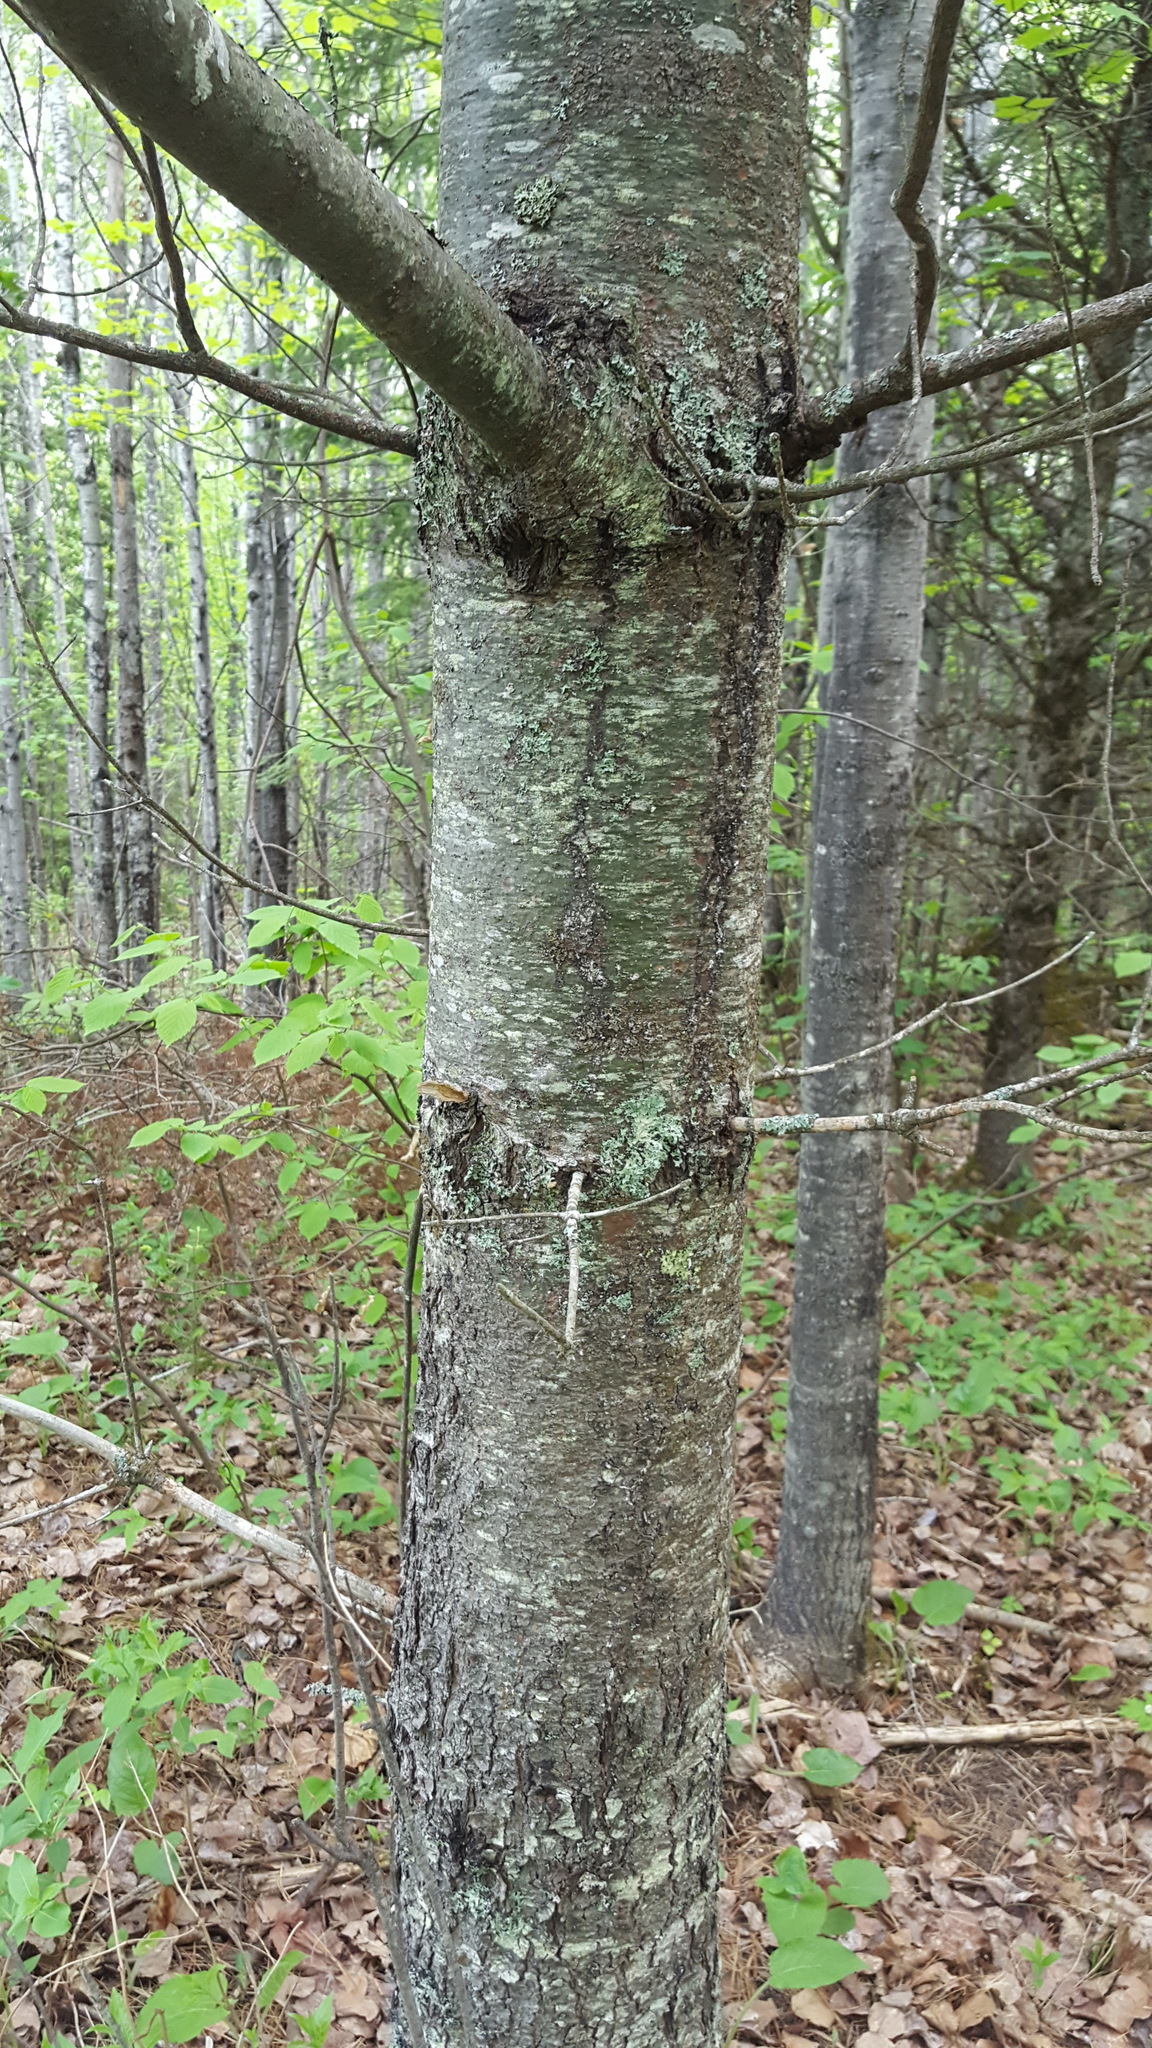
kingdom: Plantae
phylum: Tracheophyta
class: Pinopsida
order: Pinales
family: Pinaceae
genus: Pinus
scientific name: Pinus strobus
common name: Weymouth pine
